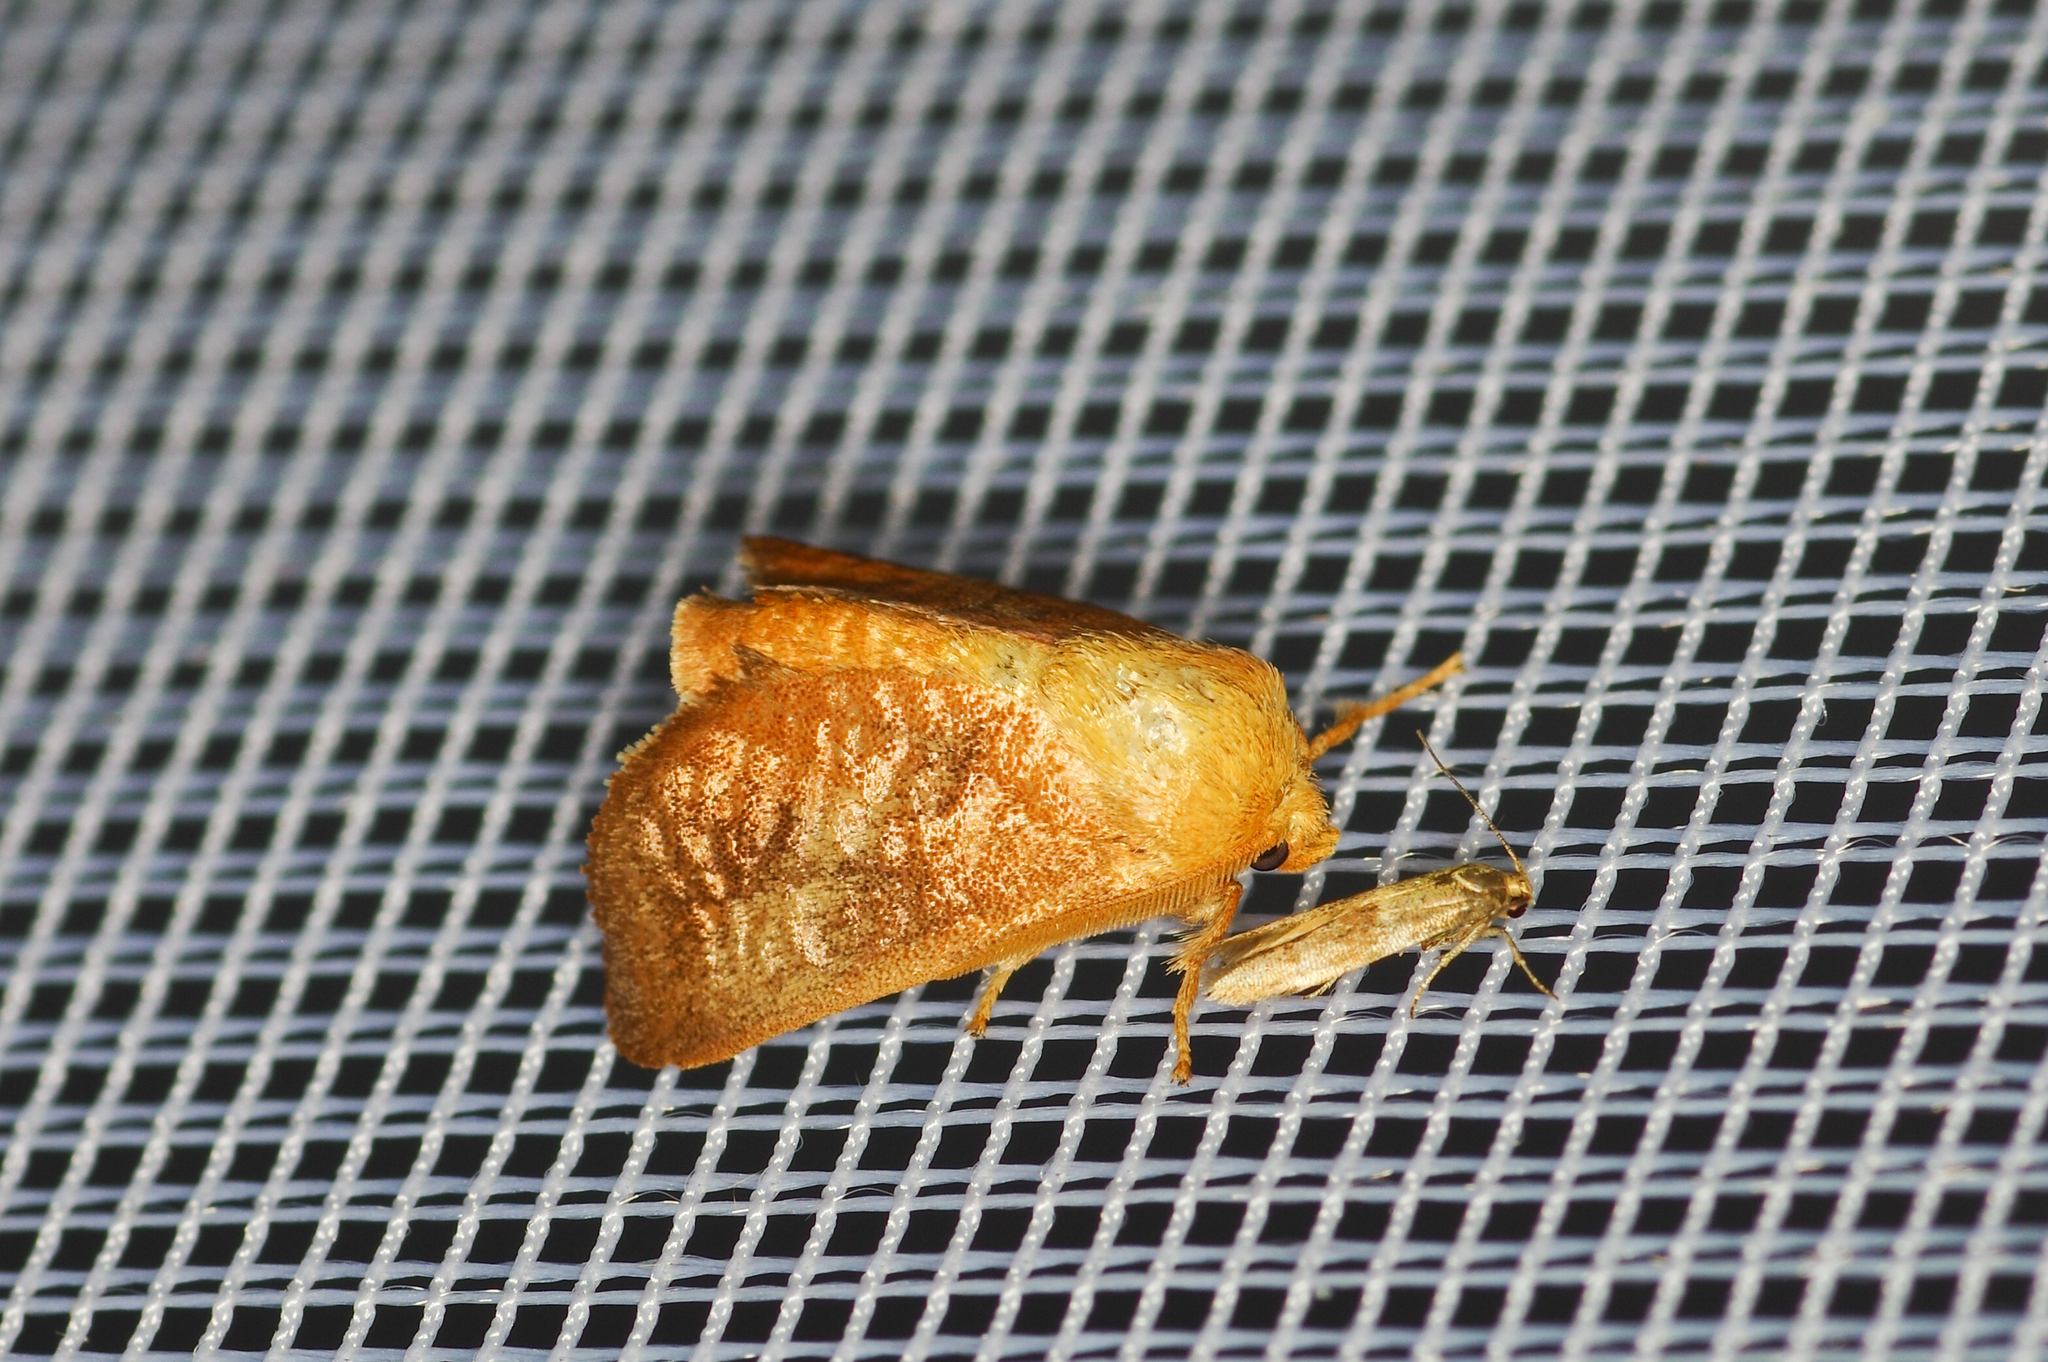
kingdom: Animalia
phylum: Arthropoda
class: Insecta
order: Lepidoptera
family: Limacodidae
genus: Isa
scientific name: Isa textula
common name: Crowned slug moth
